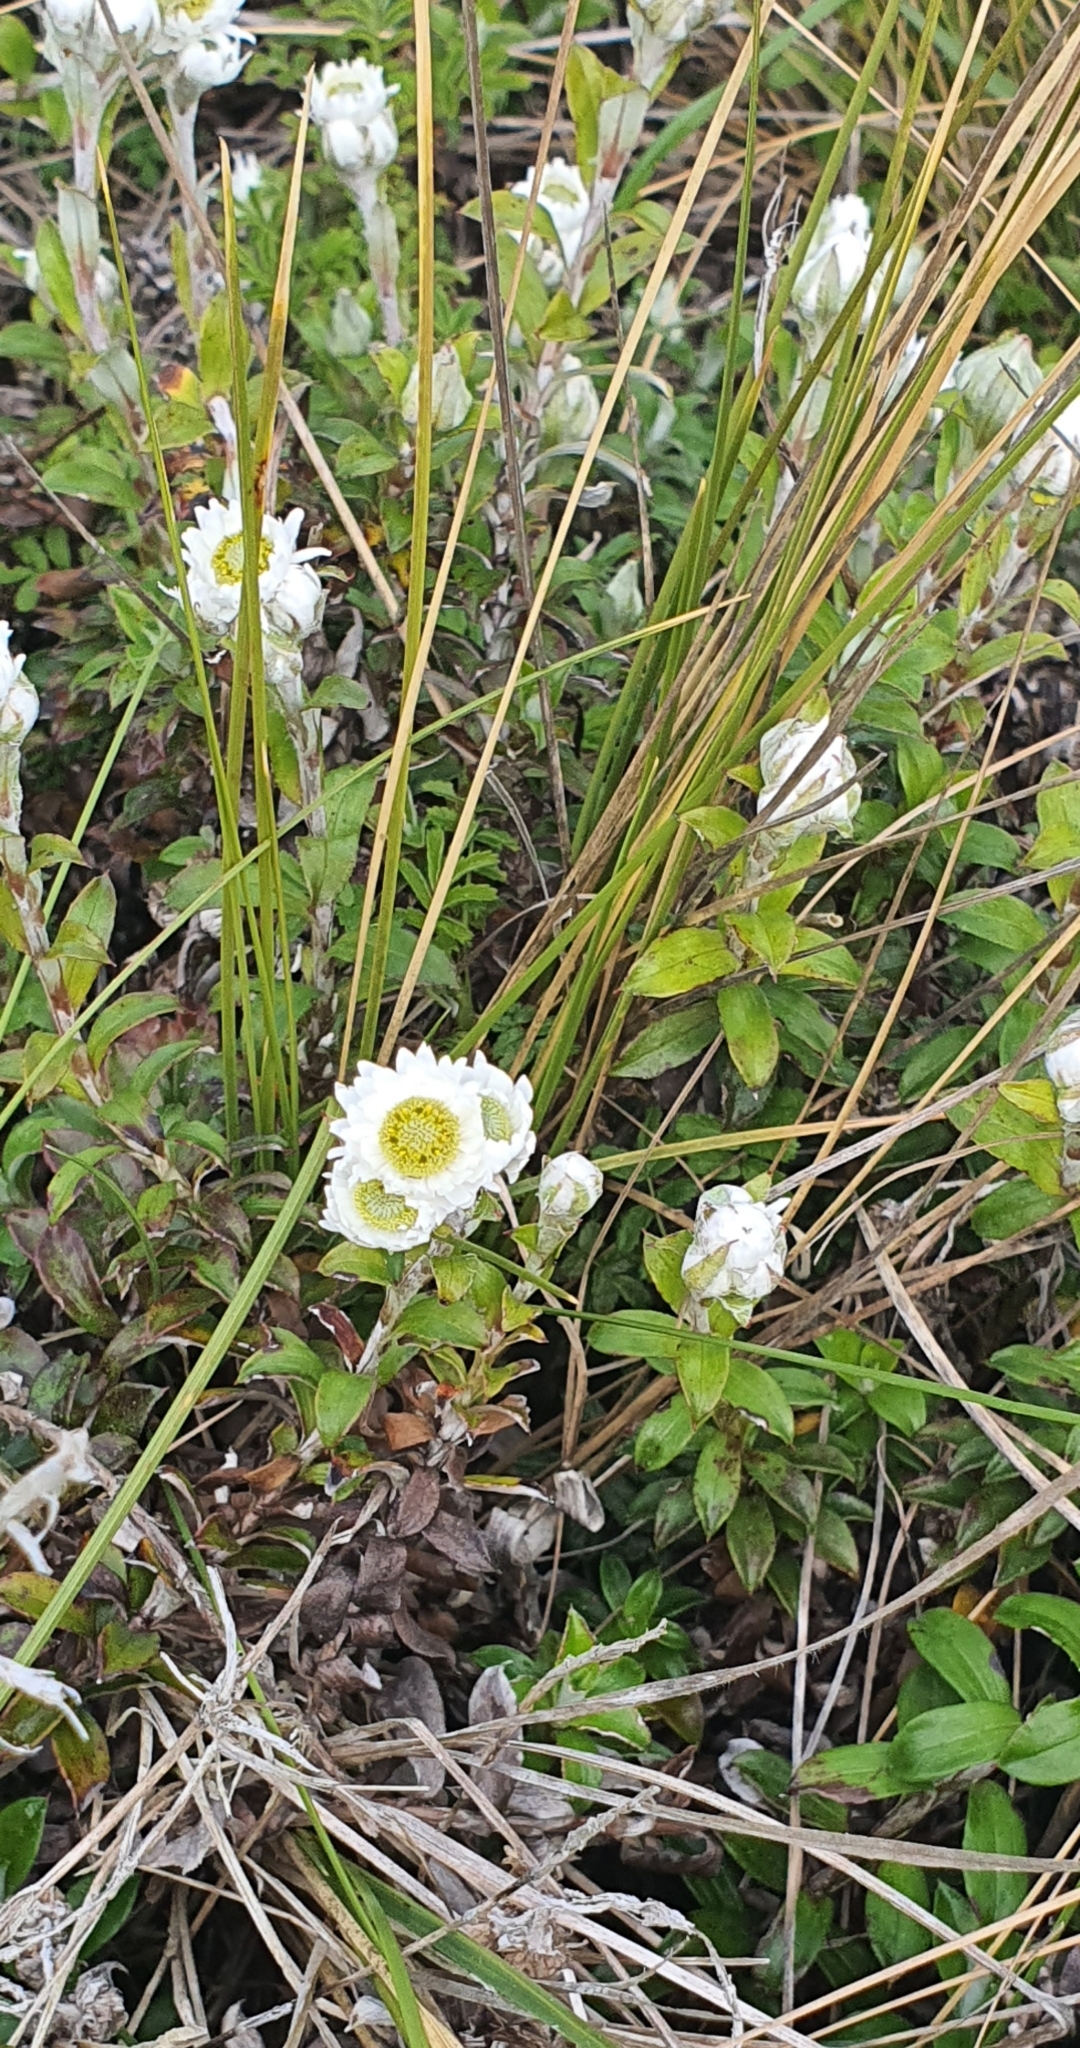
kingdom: Plantae
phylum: Tracheophyta
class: Magnoliopsida
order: Asterales
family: Asteraceae
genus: Anaphalioides
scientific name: Anaphalioides hookeri
